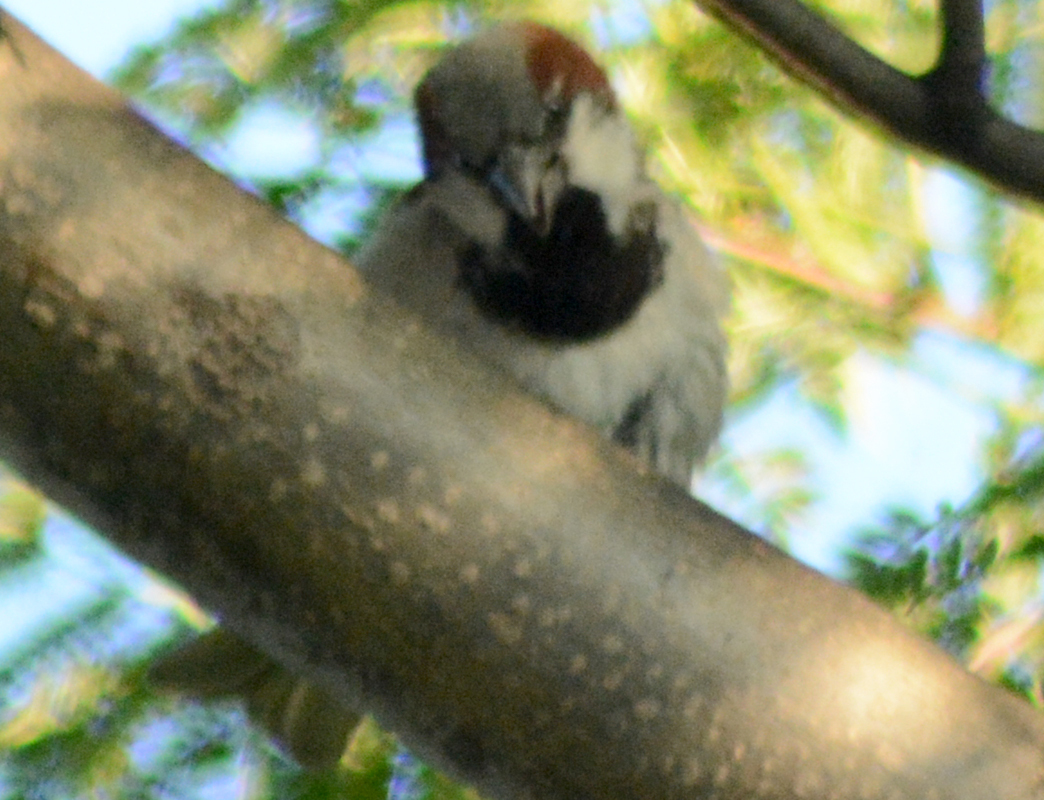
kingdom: Animalia
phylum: Chordata
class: Aves
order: Passeriformes
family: Passeridae
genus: Passer
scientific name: Passer domesticus
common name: House sparrow
